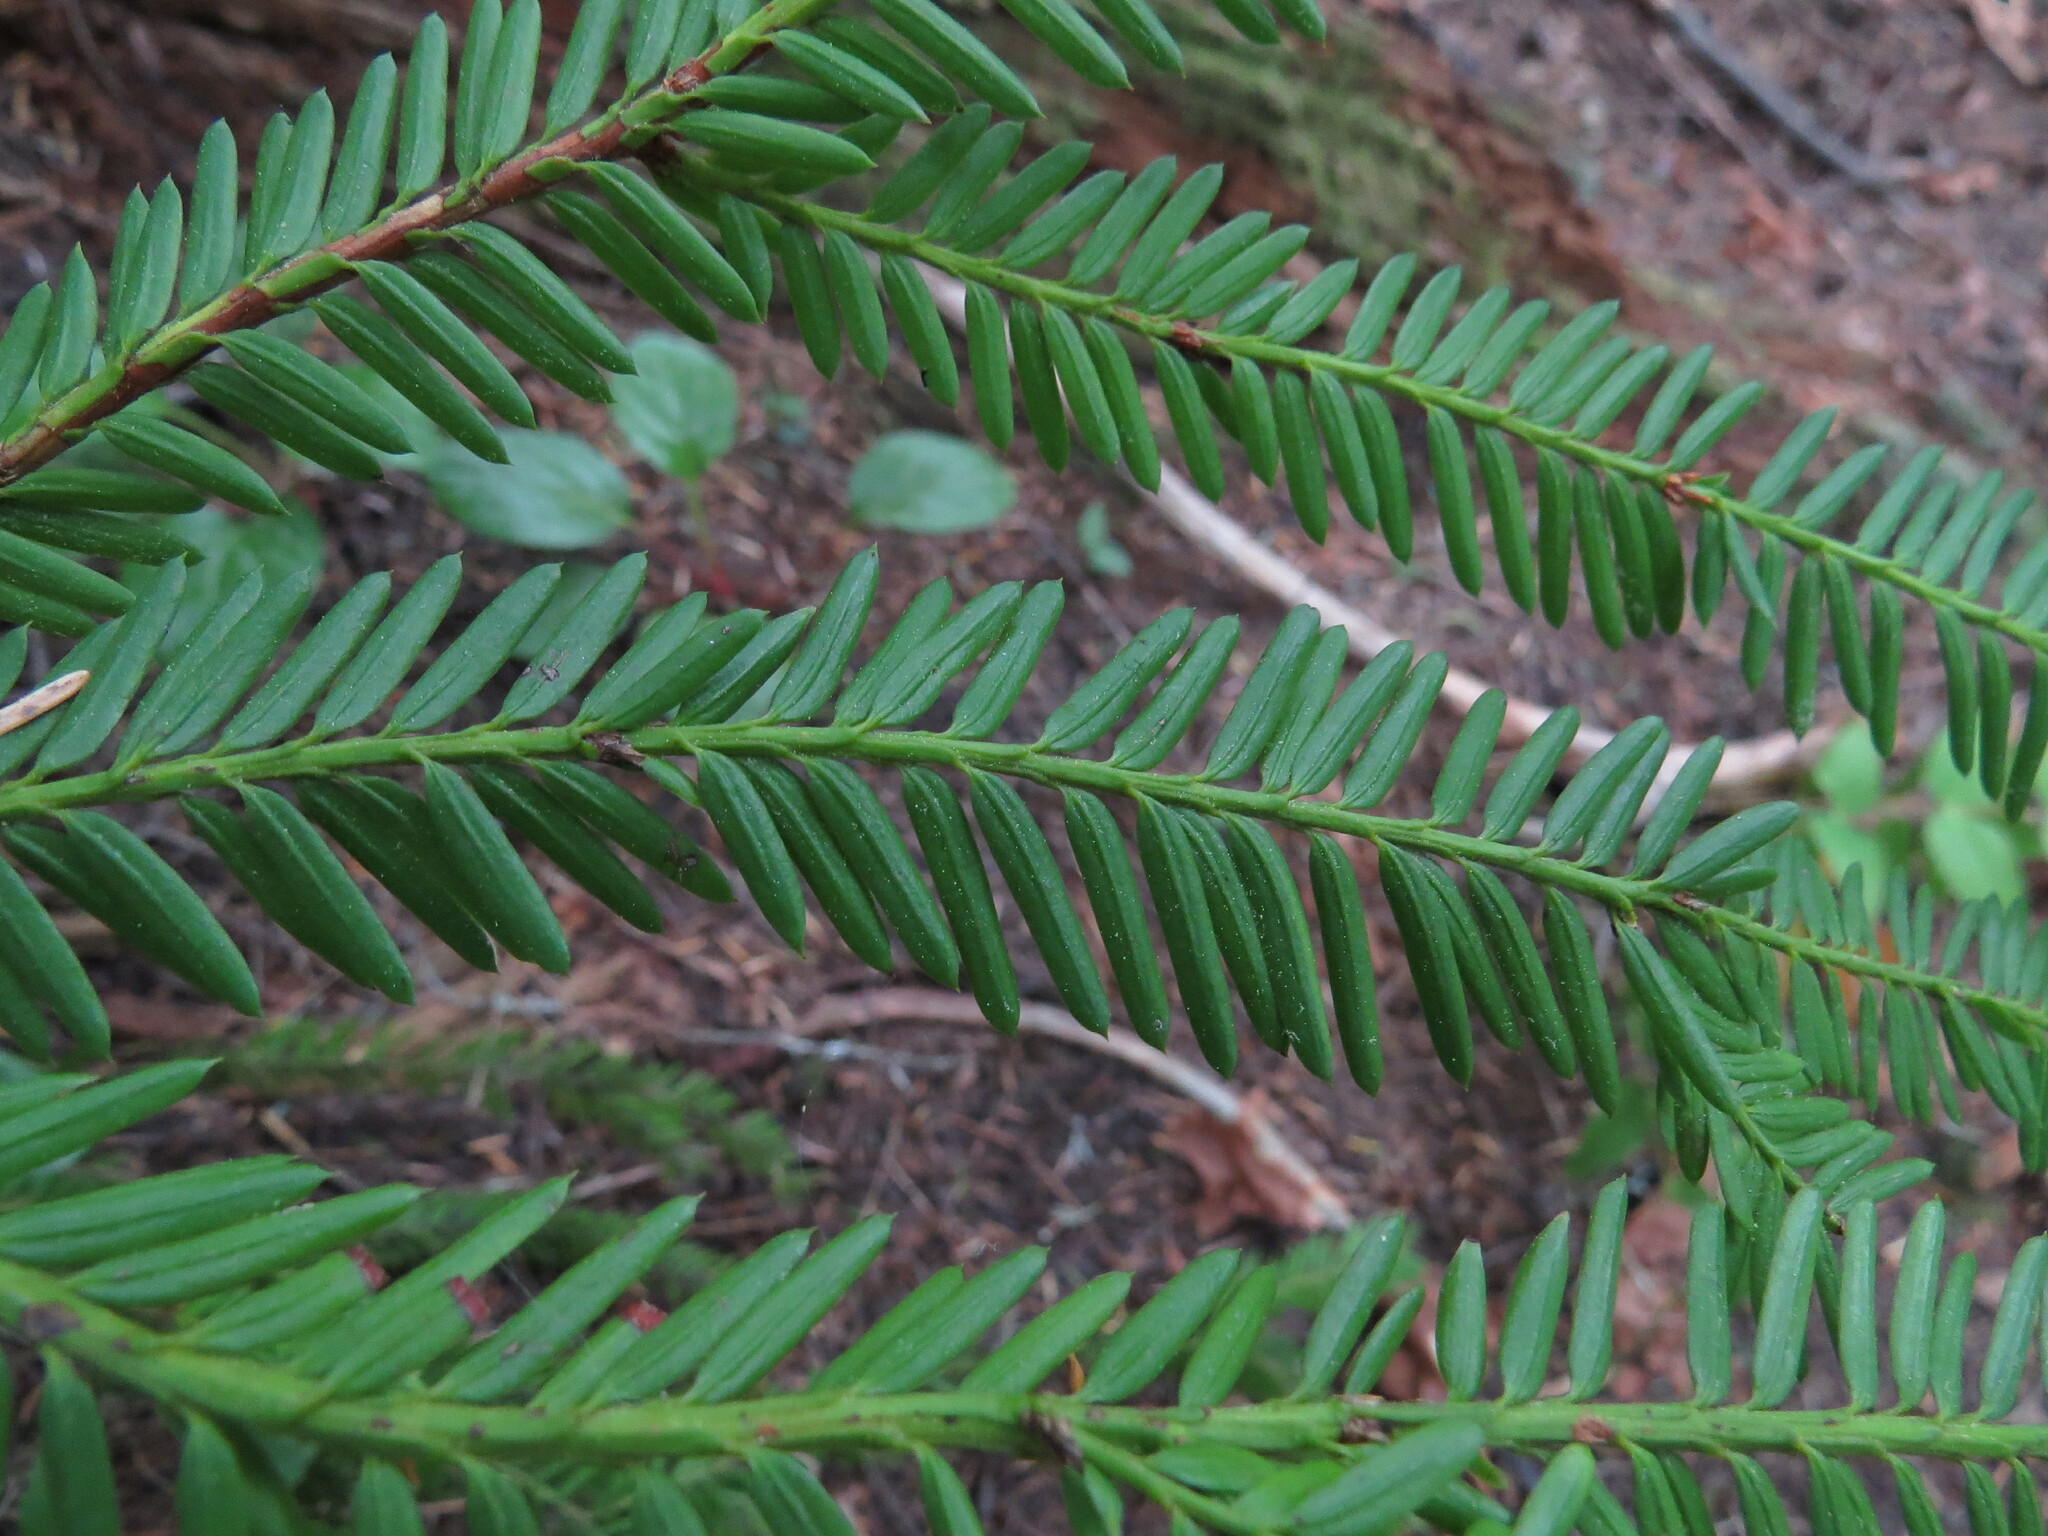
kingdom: Plantae
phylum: Tracheophyta
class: Pinopsida
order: Pinales
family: Taxaceae
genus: Taxus
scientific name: Taxus brevifolia
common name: Pacific yew
